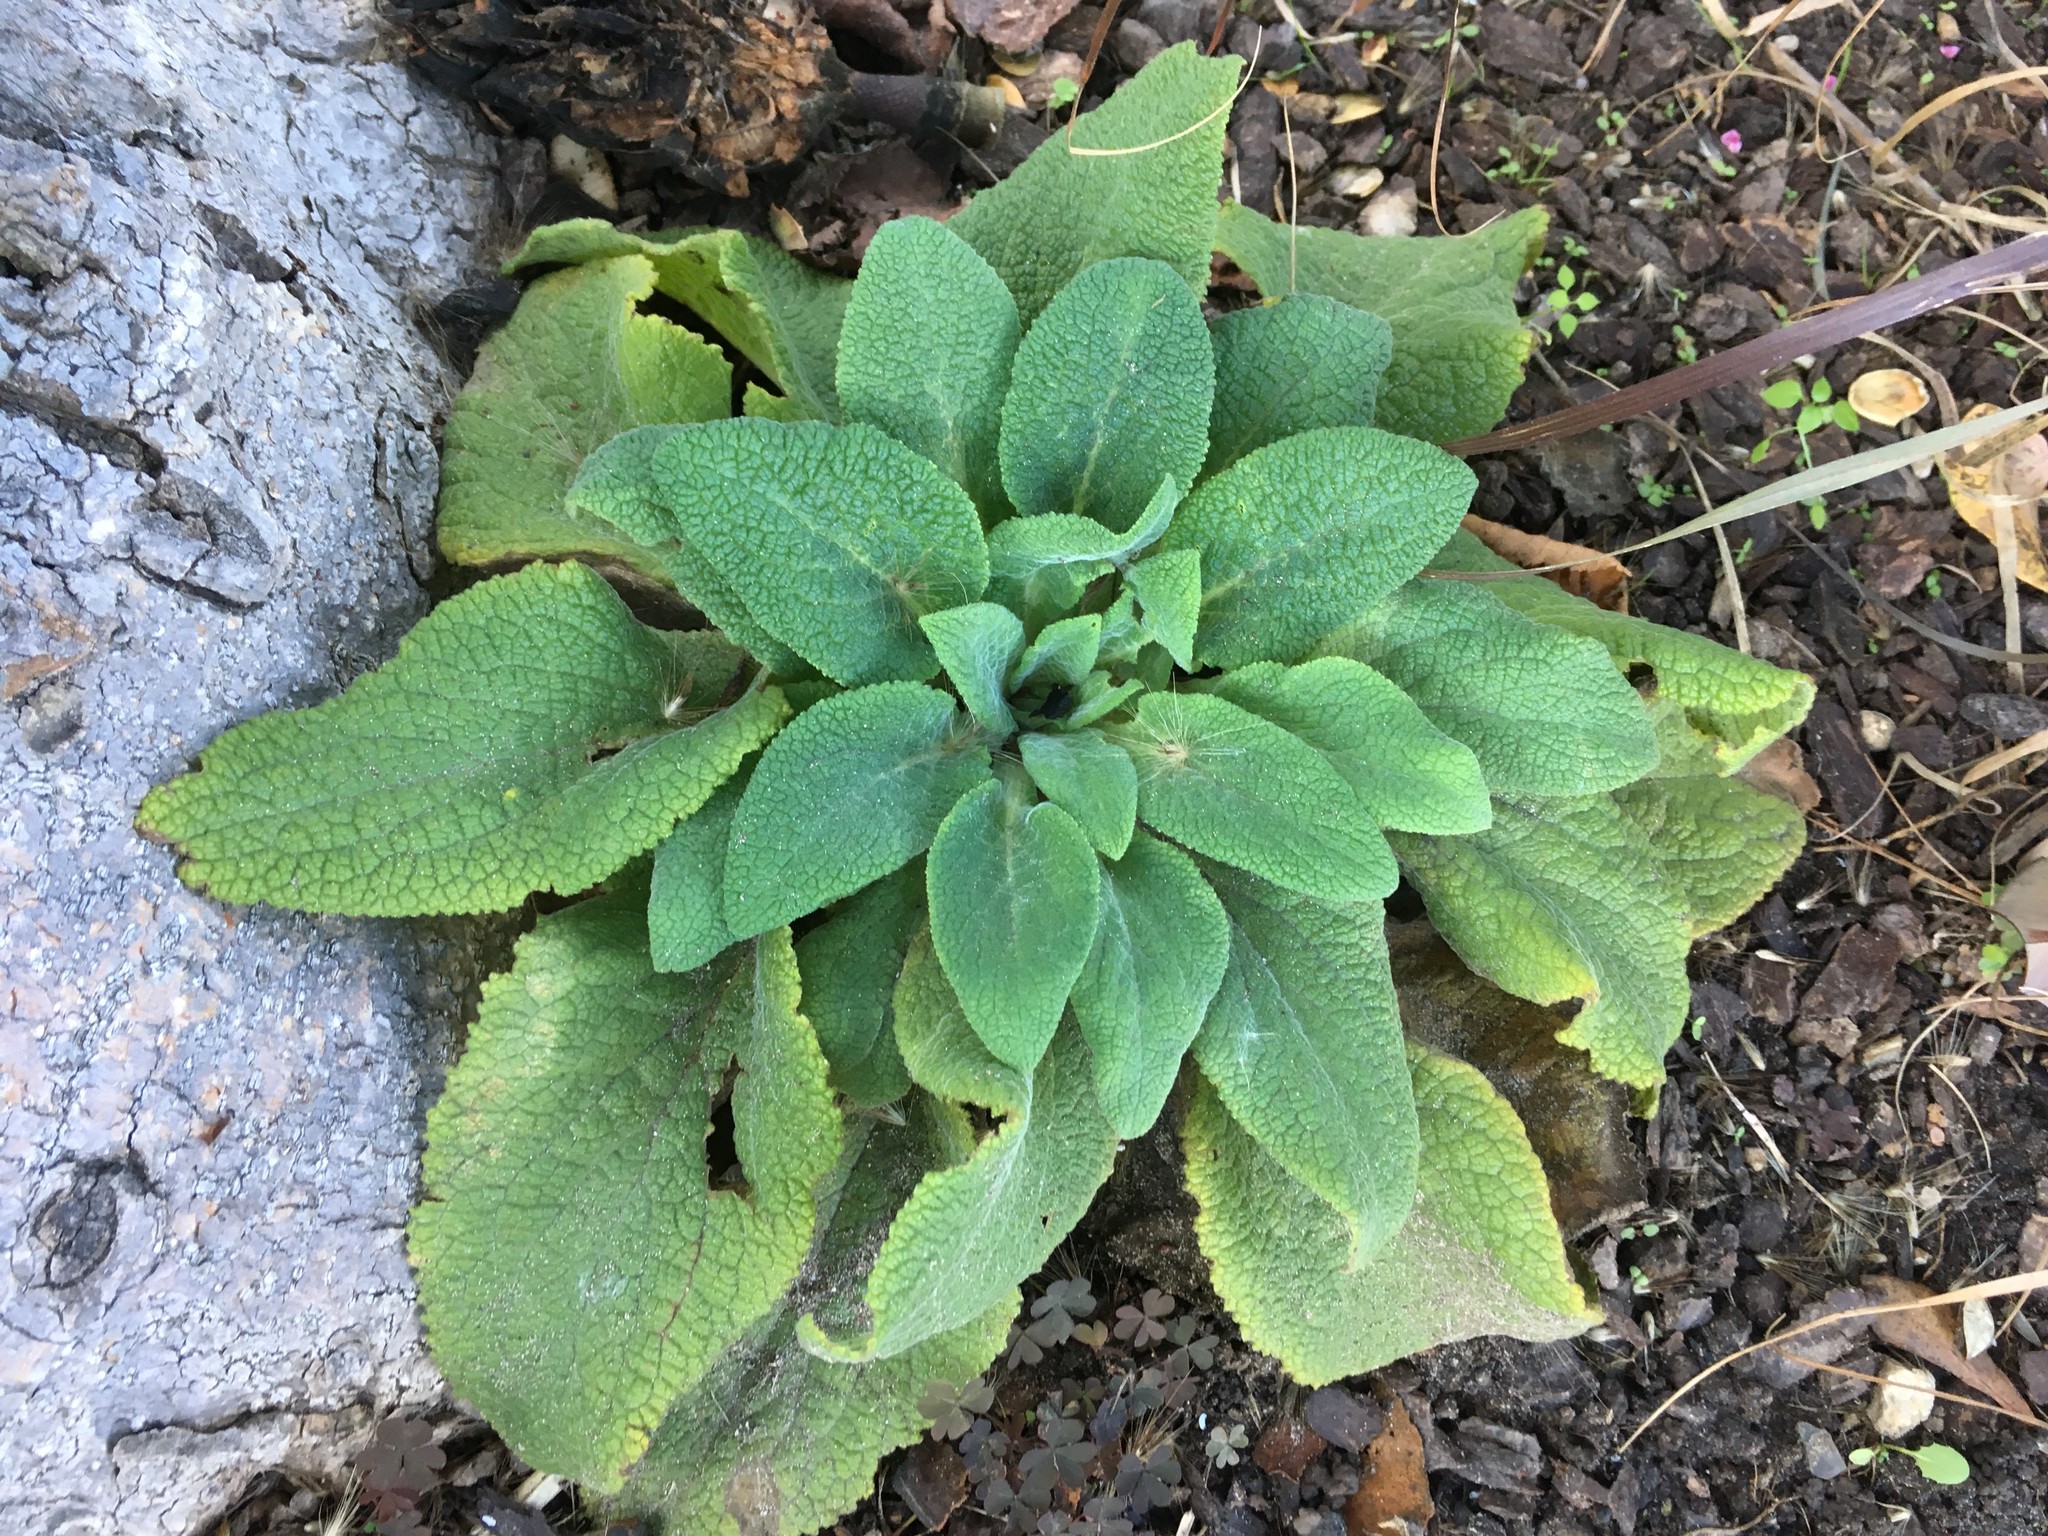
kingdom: Plantae
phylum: Tracheophyta
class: Magnoliopsida
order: Lamiales
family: Plantaginaceae
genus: Digitalis
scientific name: Digitalis purpurea
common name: Foxglove
